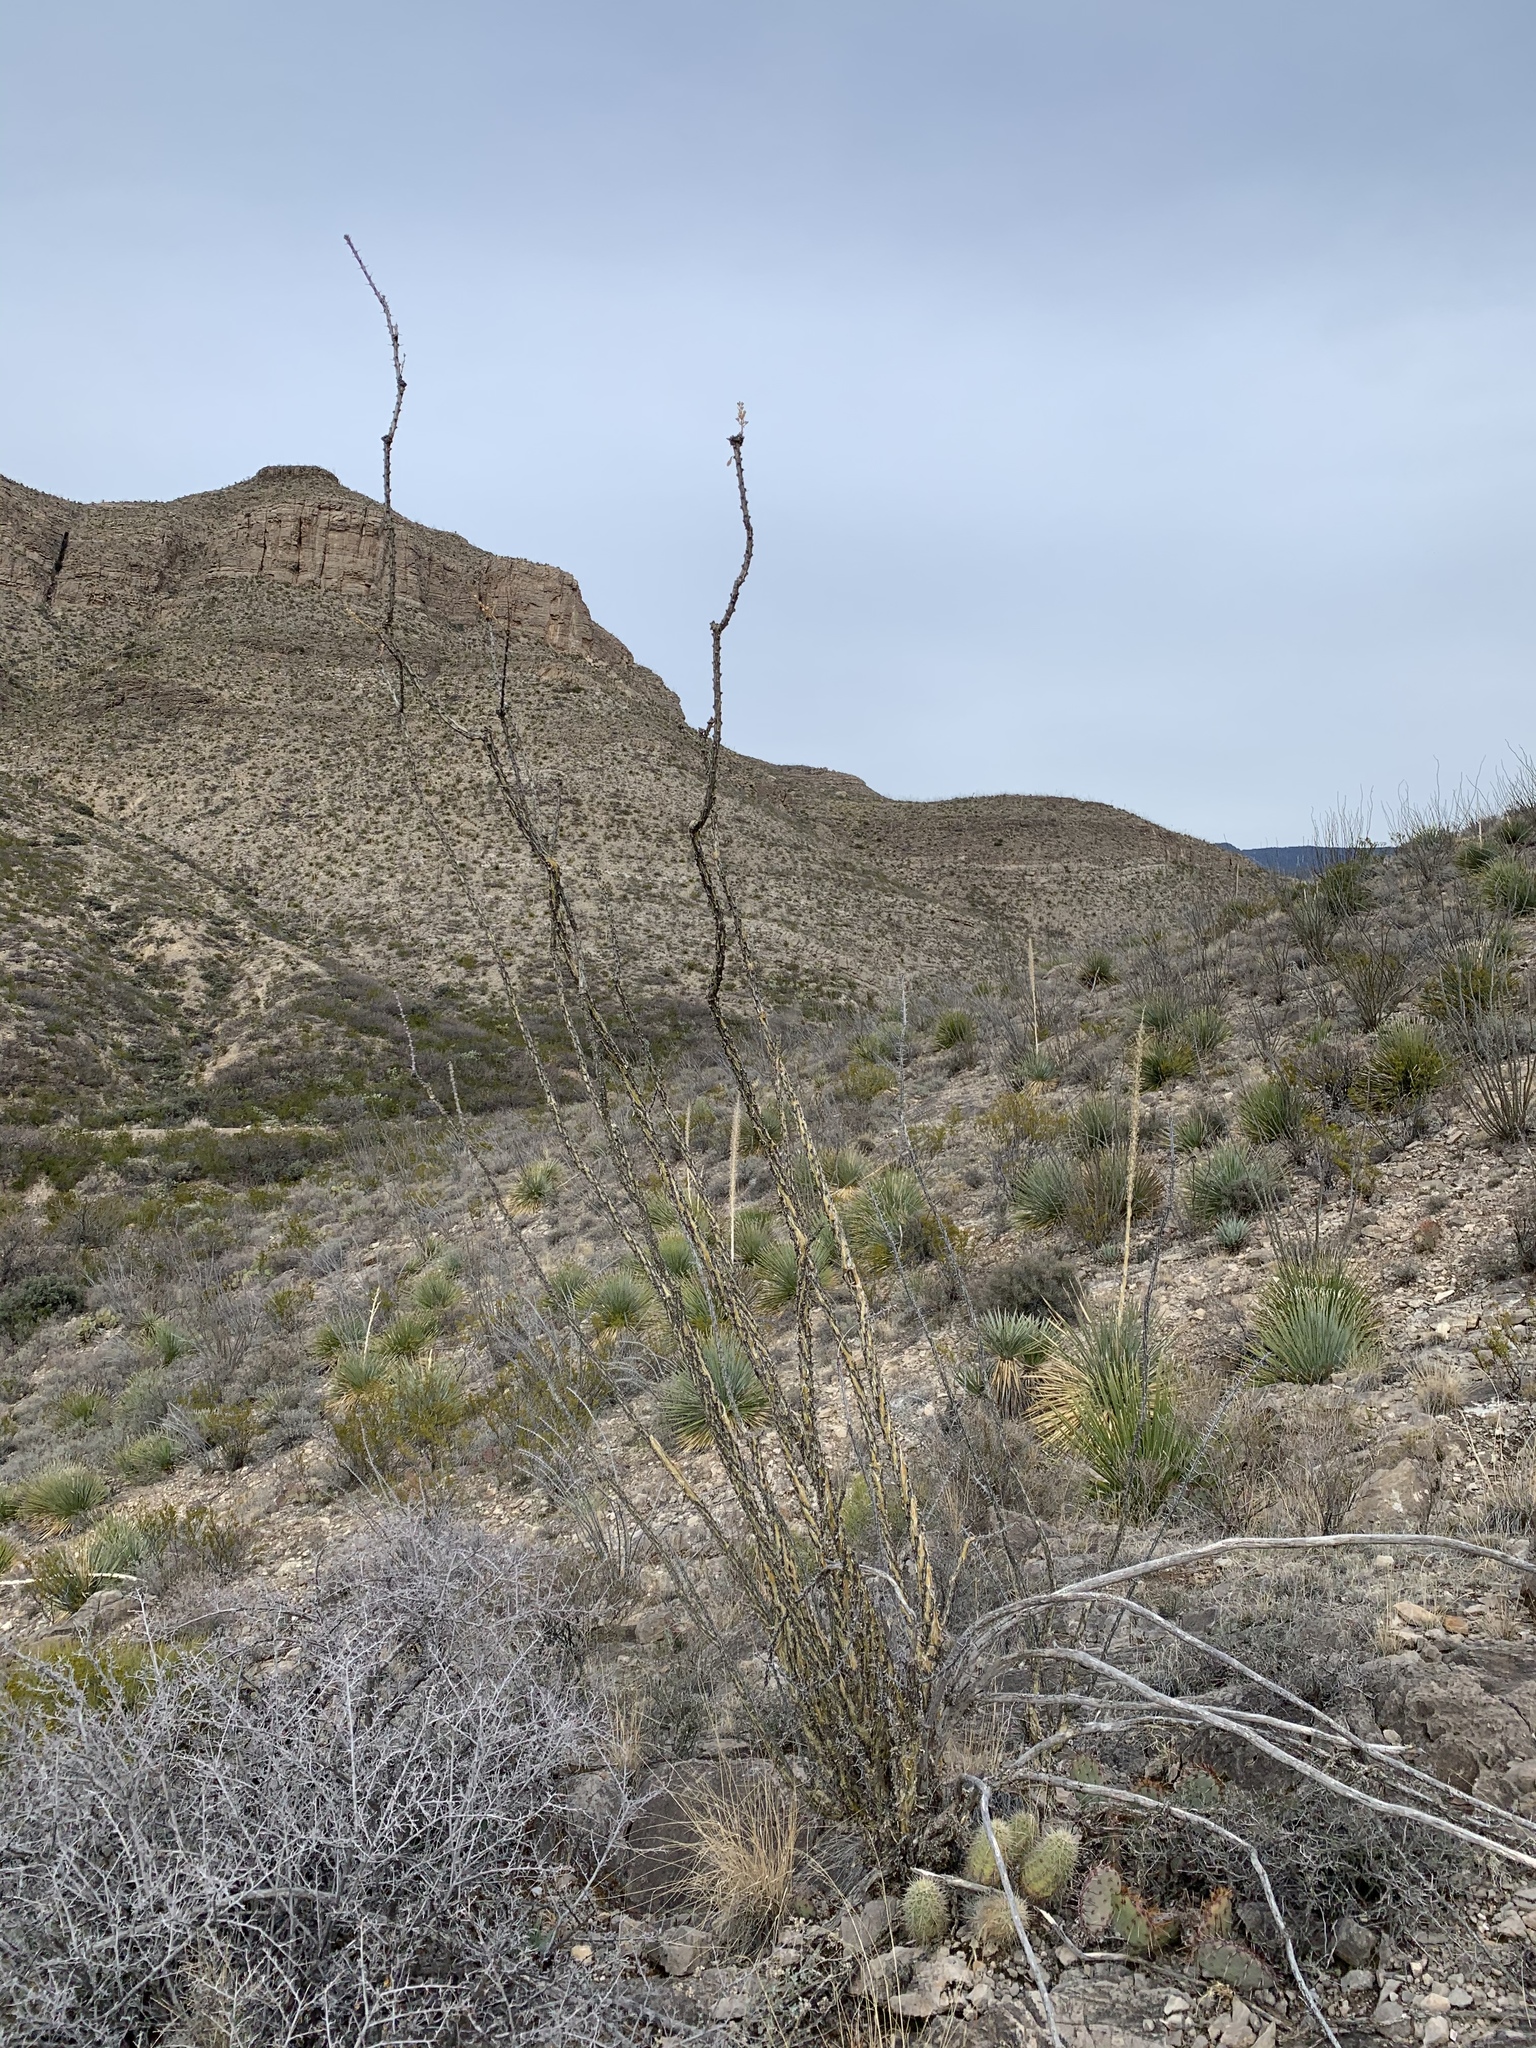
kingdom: Plantae
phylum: Tracheophyta
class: Magnoliopsida
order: Ericales
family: Fouquieriaceae
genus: Fouquieria
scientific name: Fouquieria splendens
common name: Vine-cactus
